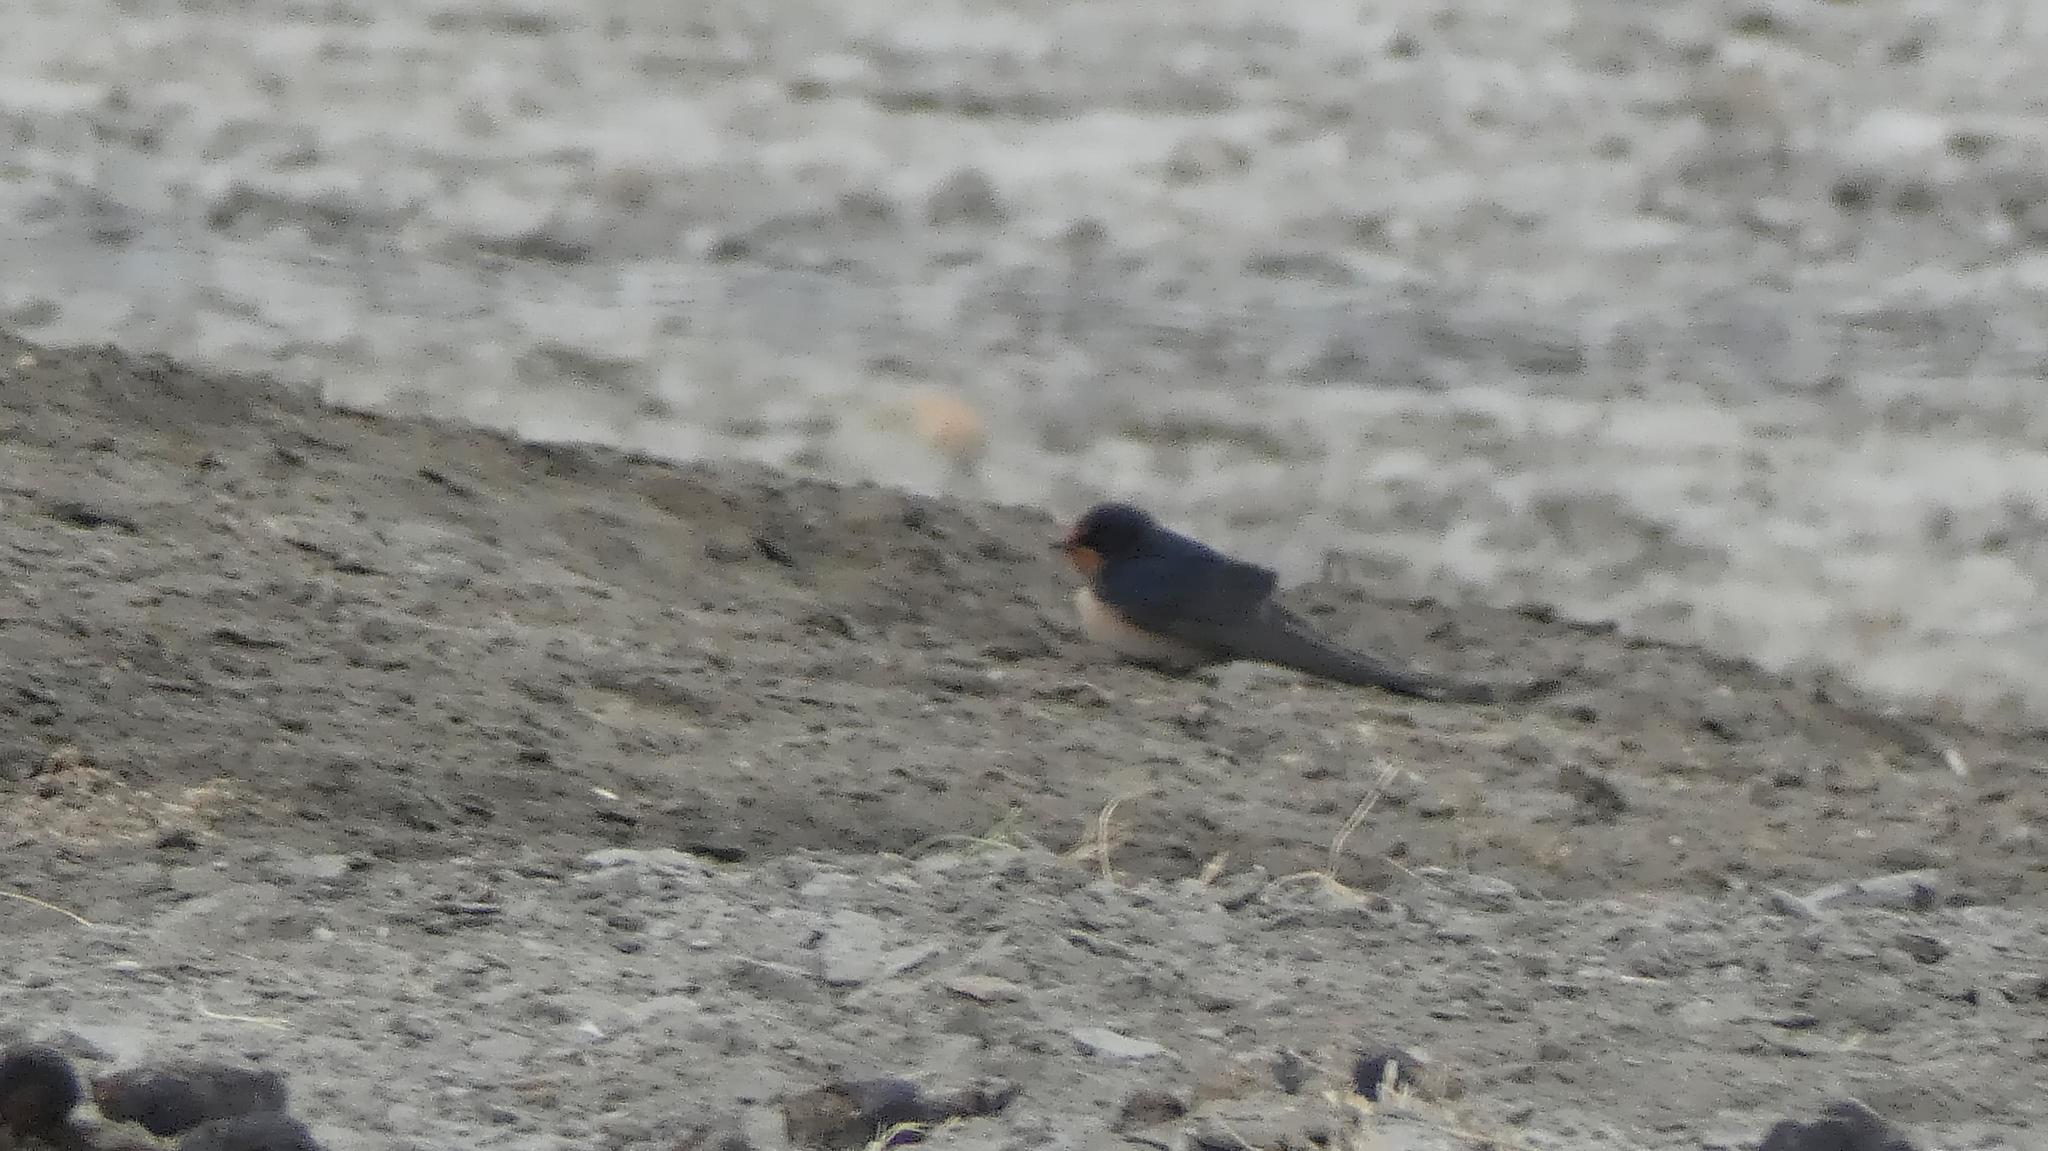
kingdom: Animalia
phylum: Chordata
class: Aves
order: Passeriformes
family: Hirundinidae
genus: Hirundo
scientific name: Hirundo rustica
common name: Barn swallow
